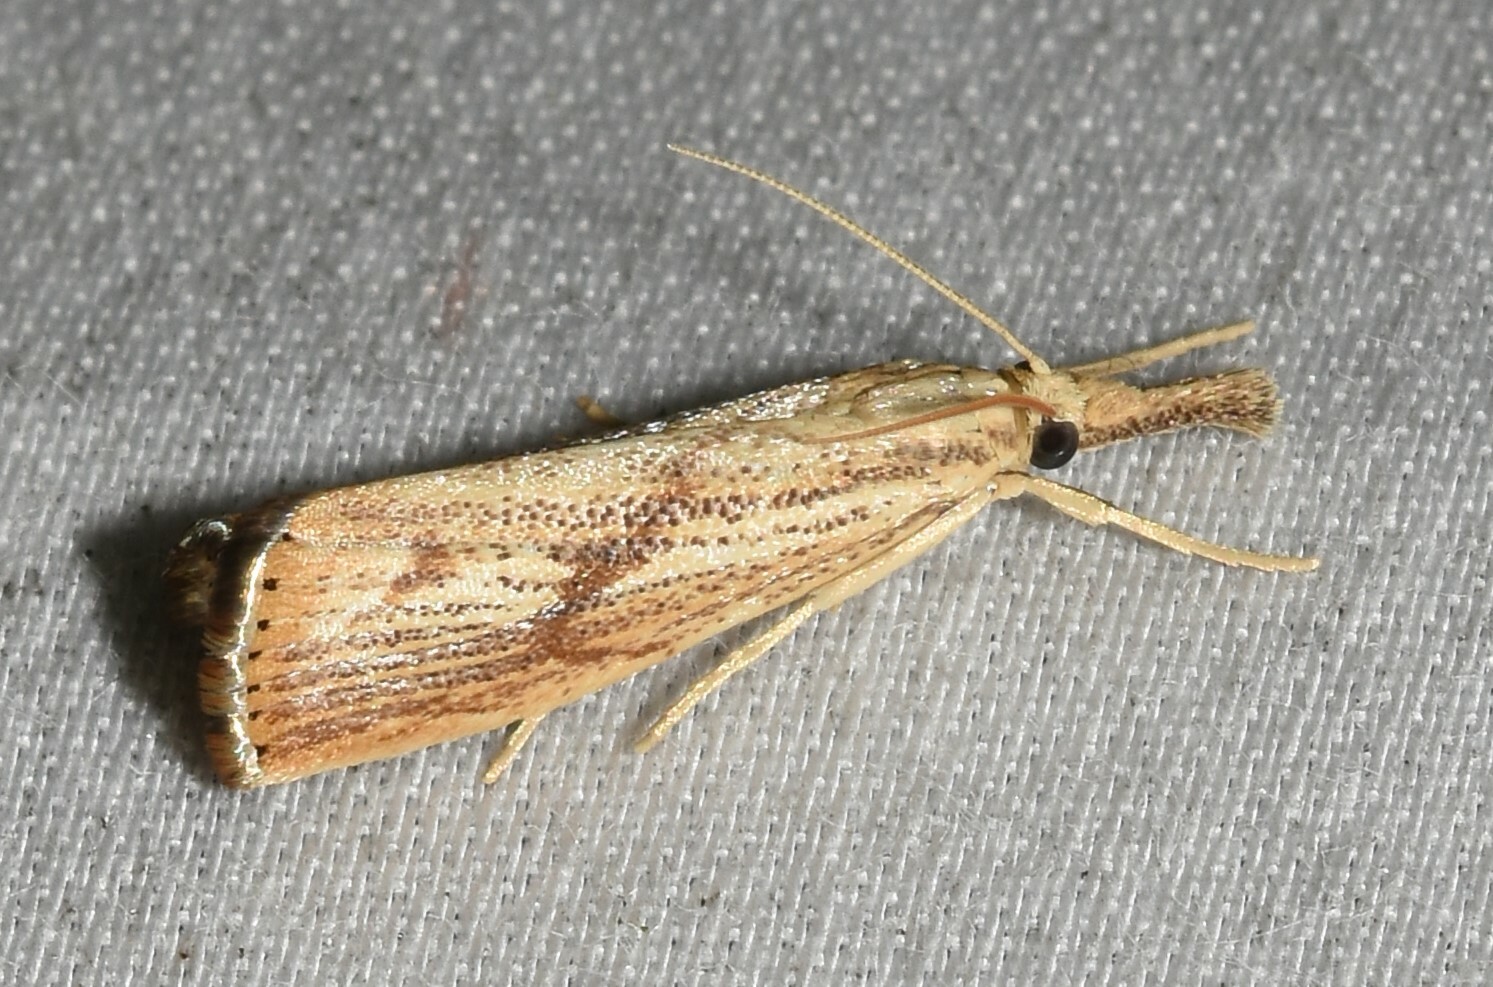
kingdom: Animalia
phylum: Arthropoda
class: Insecta
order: Lepidoptera
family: Crambidae
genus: Agriphila
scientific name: Agriphila ruricolellus
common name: Lesser vagabond sod webworm
